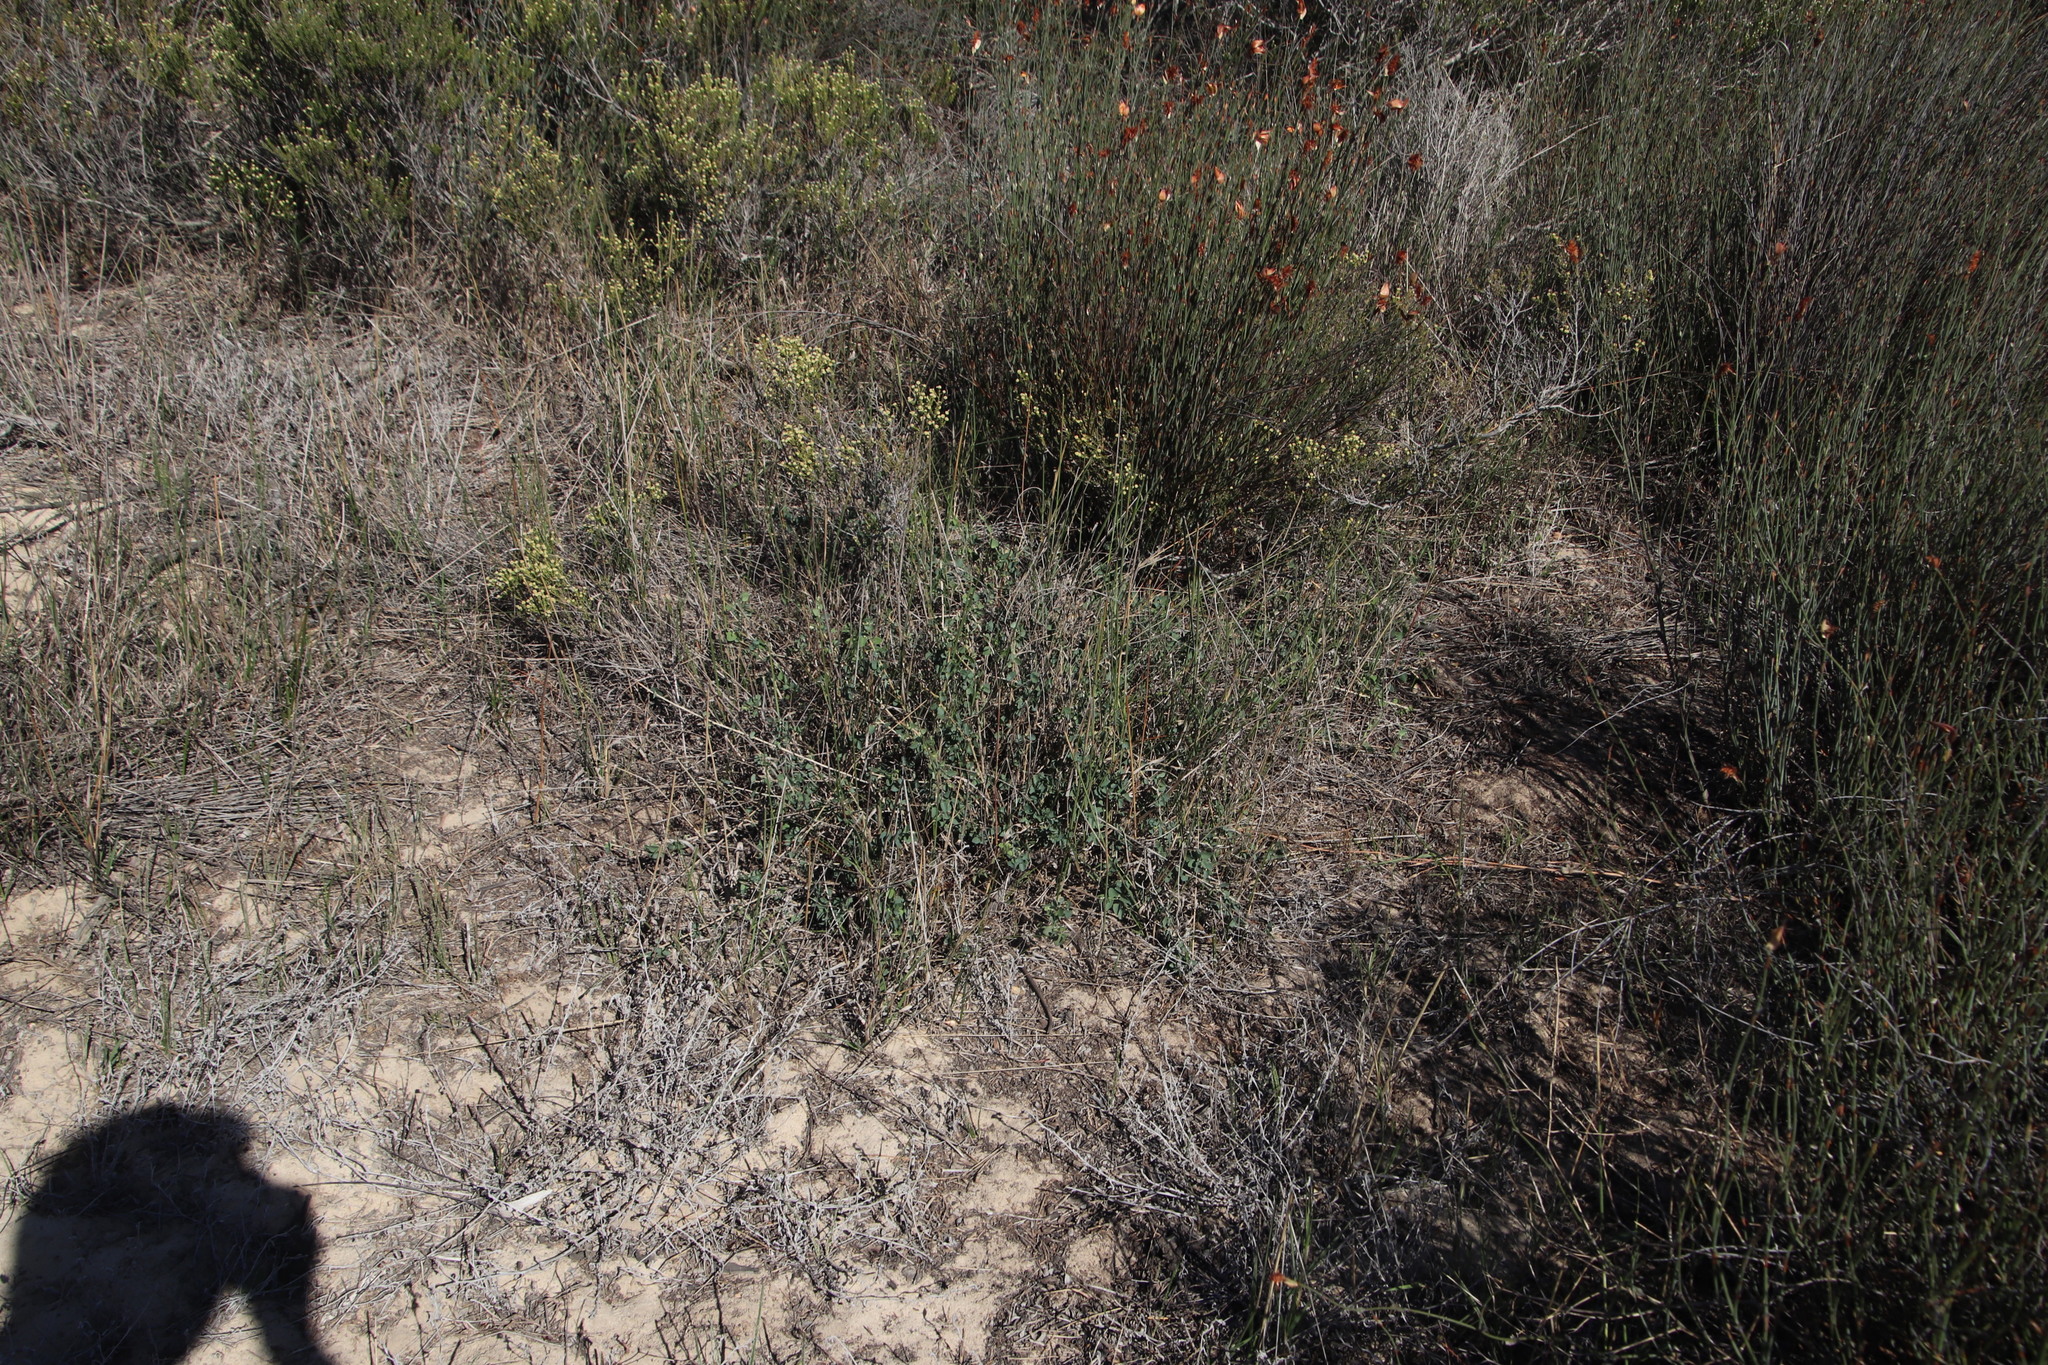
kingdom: Plantae
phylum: Tracheophyta
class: Magnoliopsida
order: Ranunculales
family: Menispermaceae
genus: Cissampelos
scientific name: Cissampelos capensis
